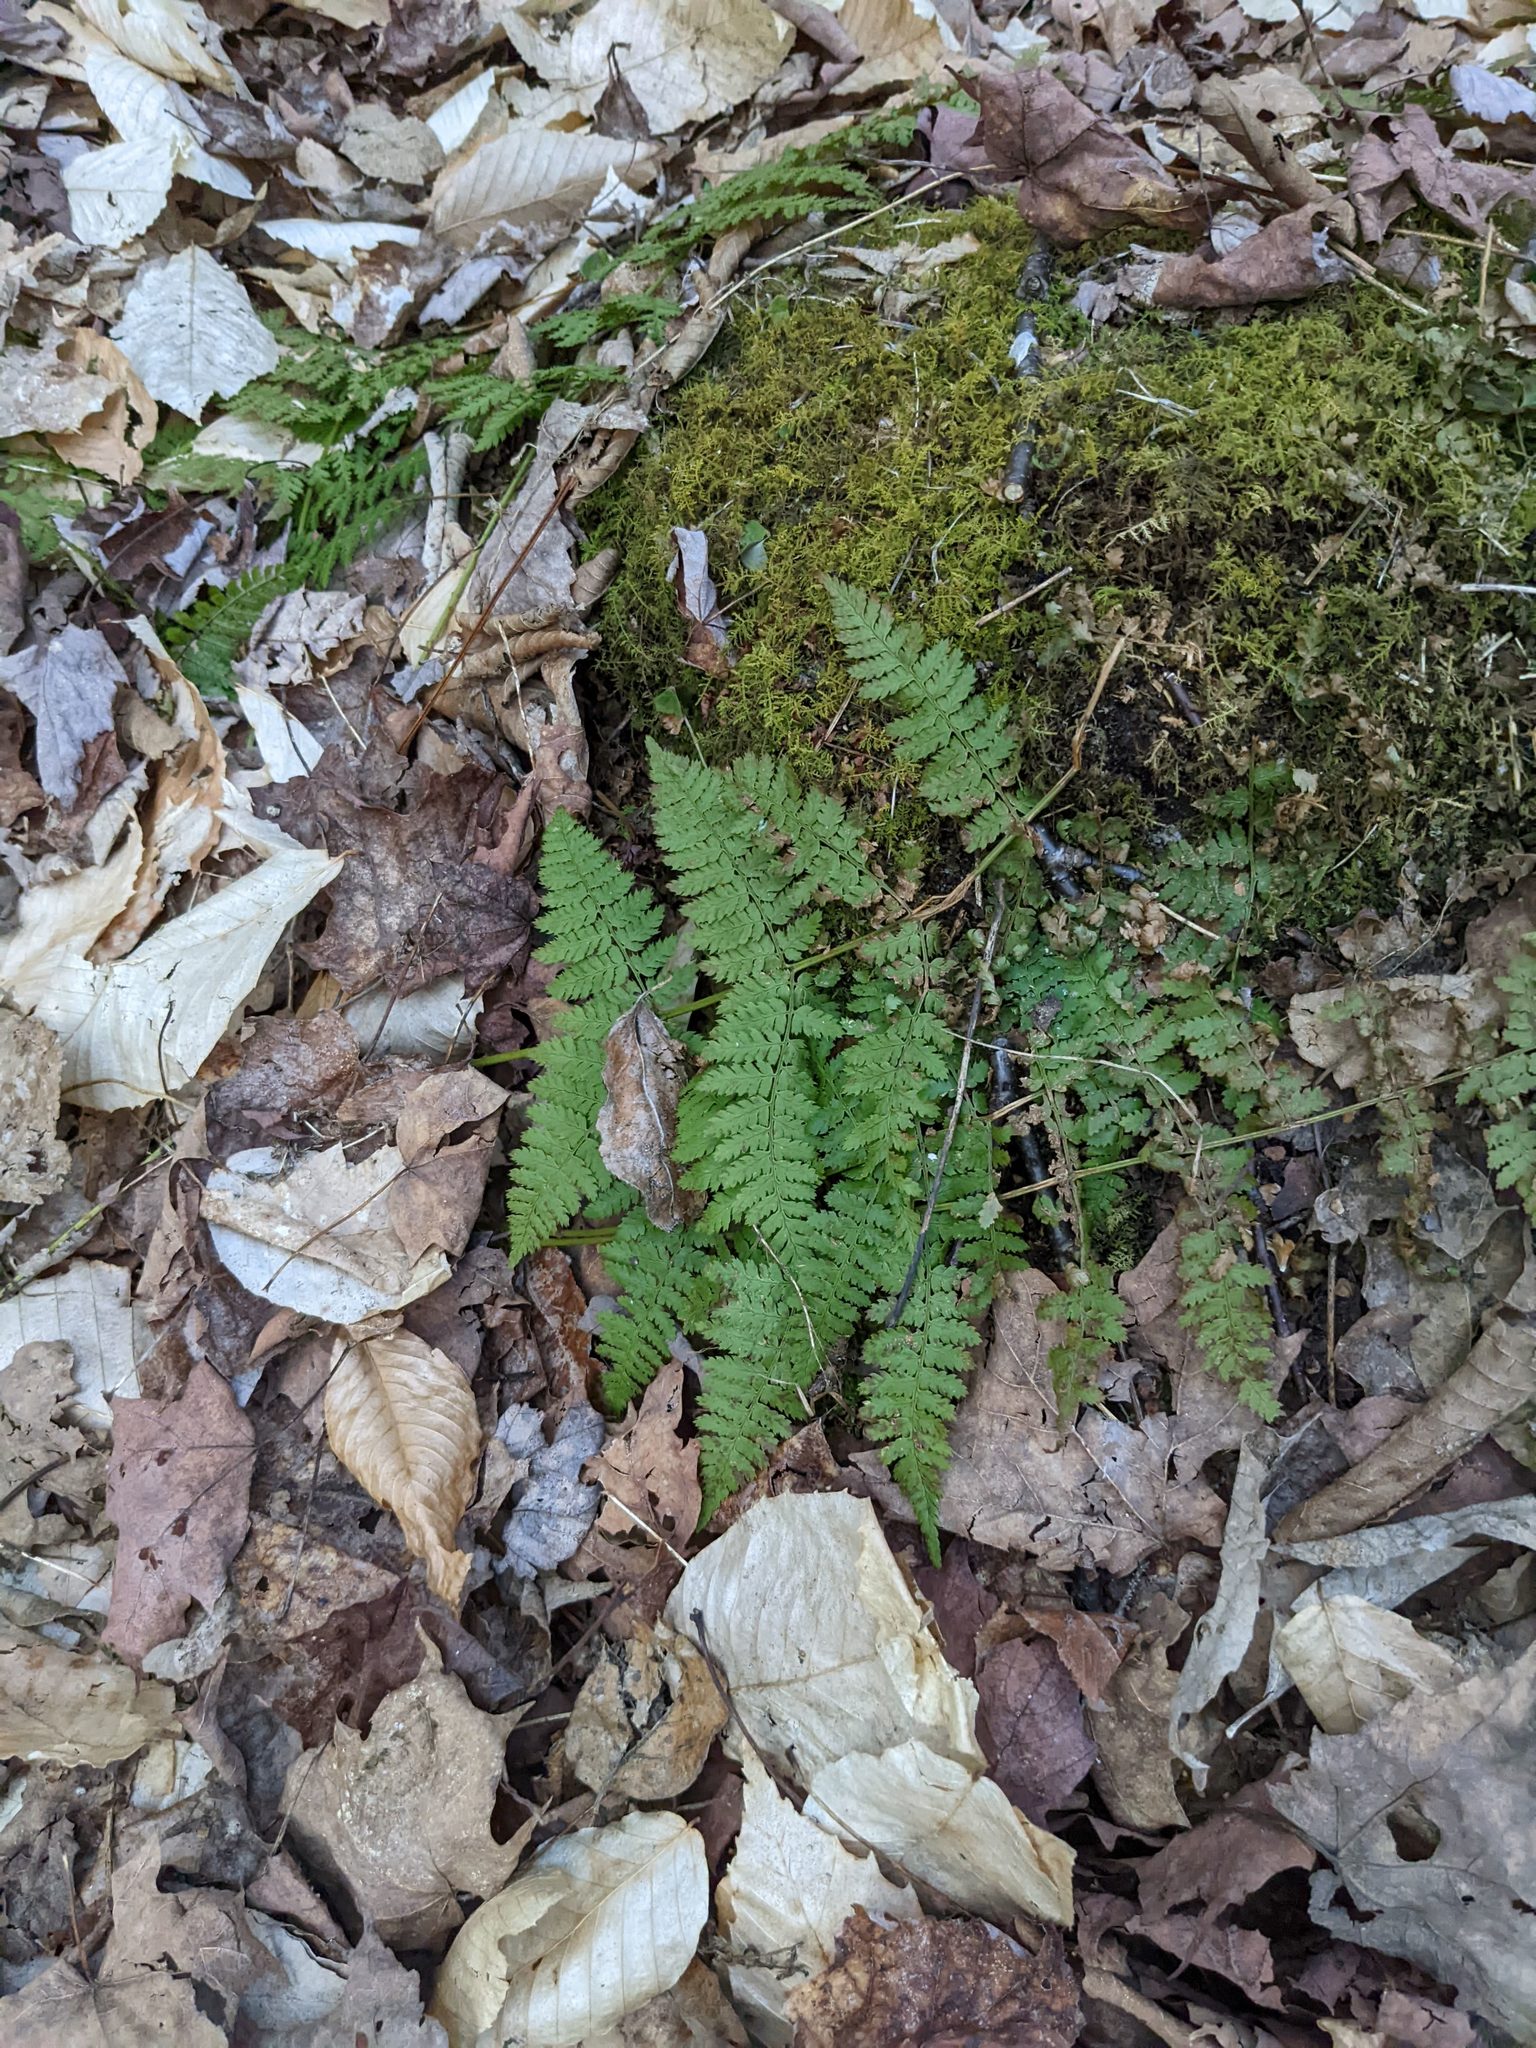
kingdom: Plantae
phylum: Tracheophyta
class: Polypodiopsida
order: Polypodiales
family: Dryopteridaceae
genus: Dryopteris
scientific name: Dryopteris intermedia
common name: Evergreen wood fern
